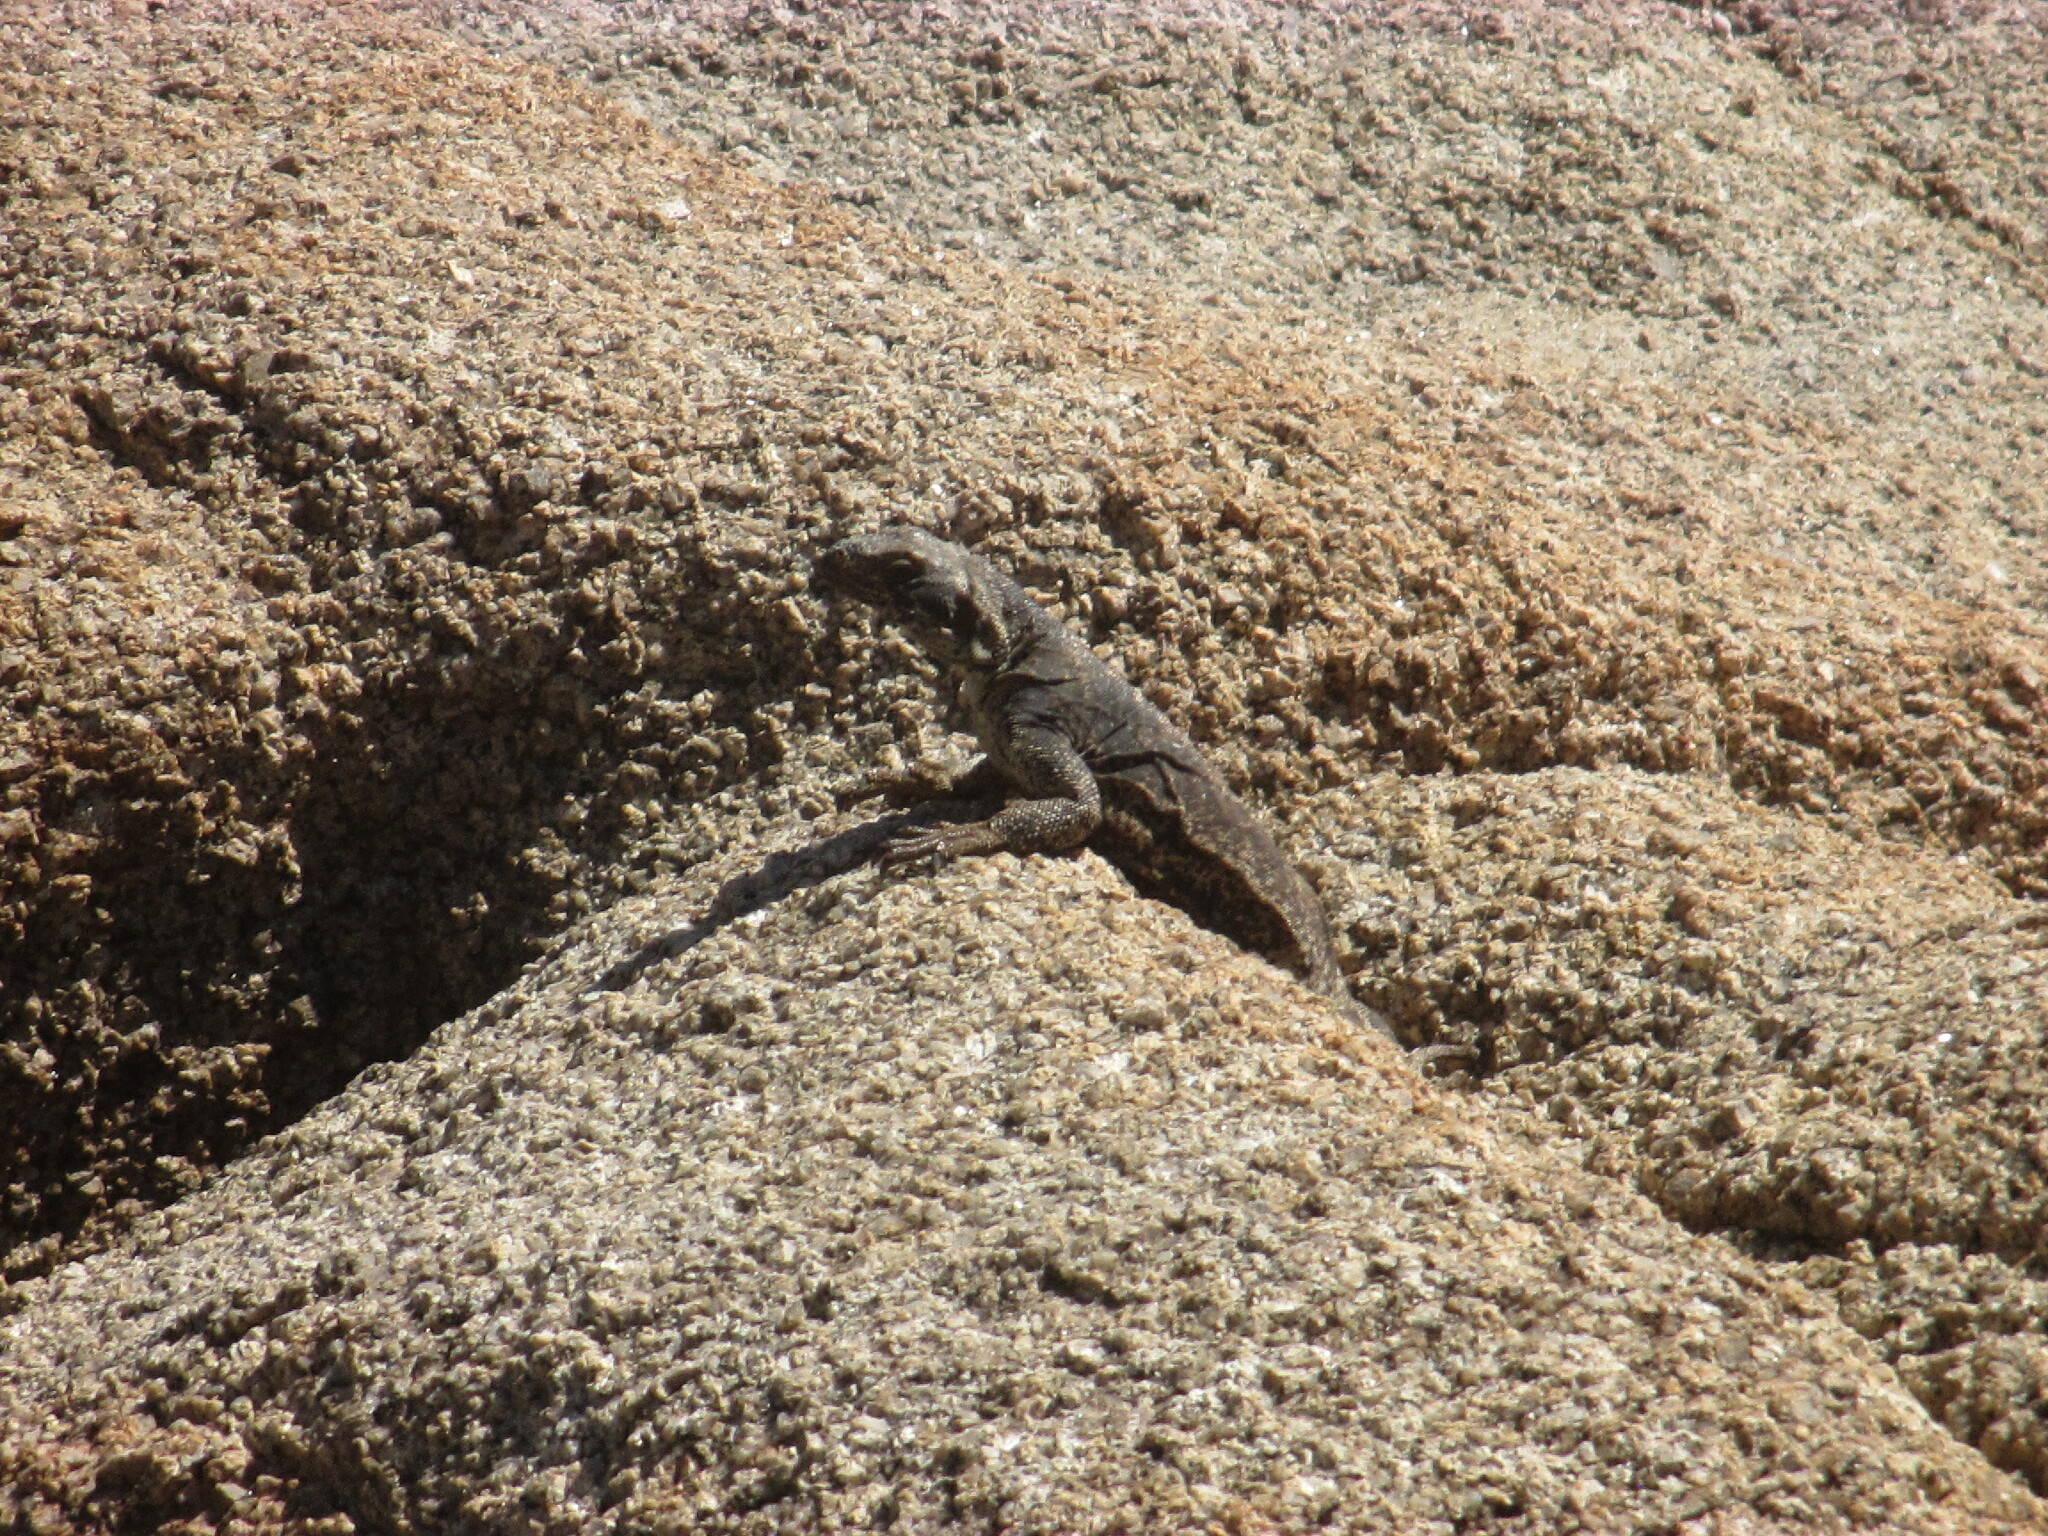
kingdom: Animalia
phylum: Chordata
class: Squamata
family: Iguanidae
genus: Sauromalus
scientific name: Sauromalus ater
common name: Northern chuckwalla
